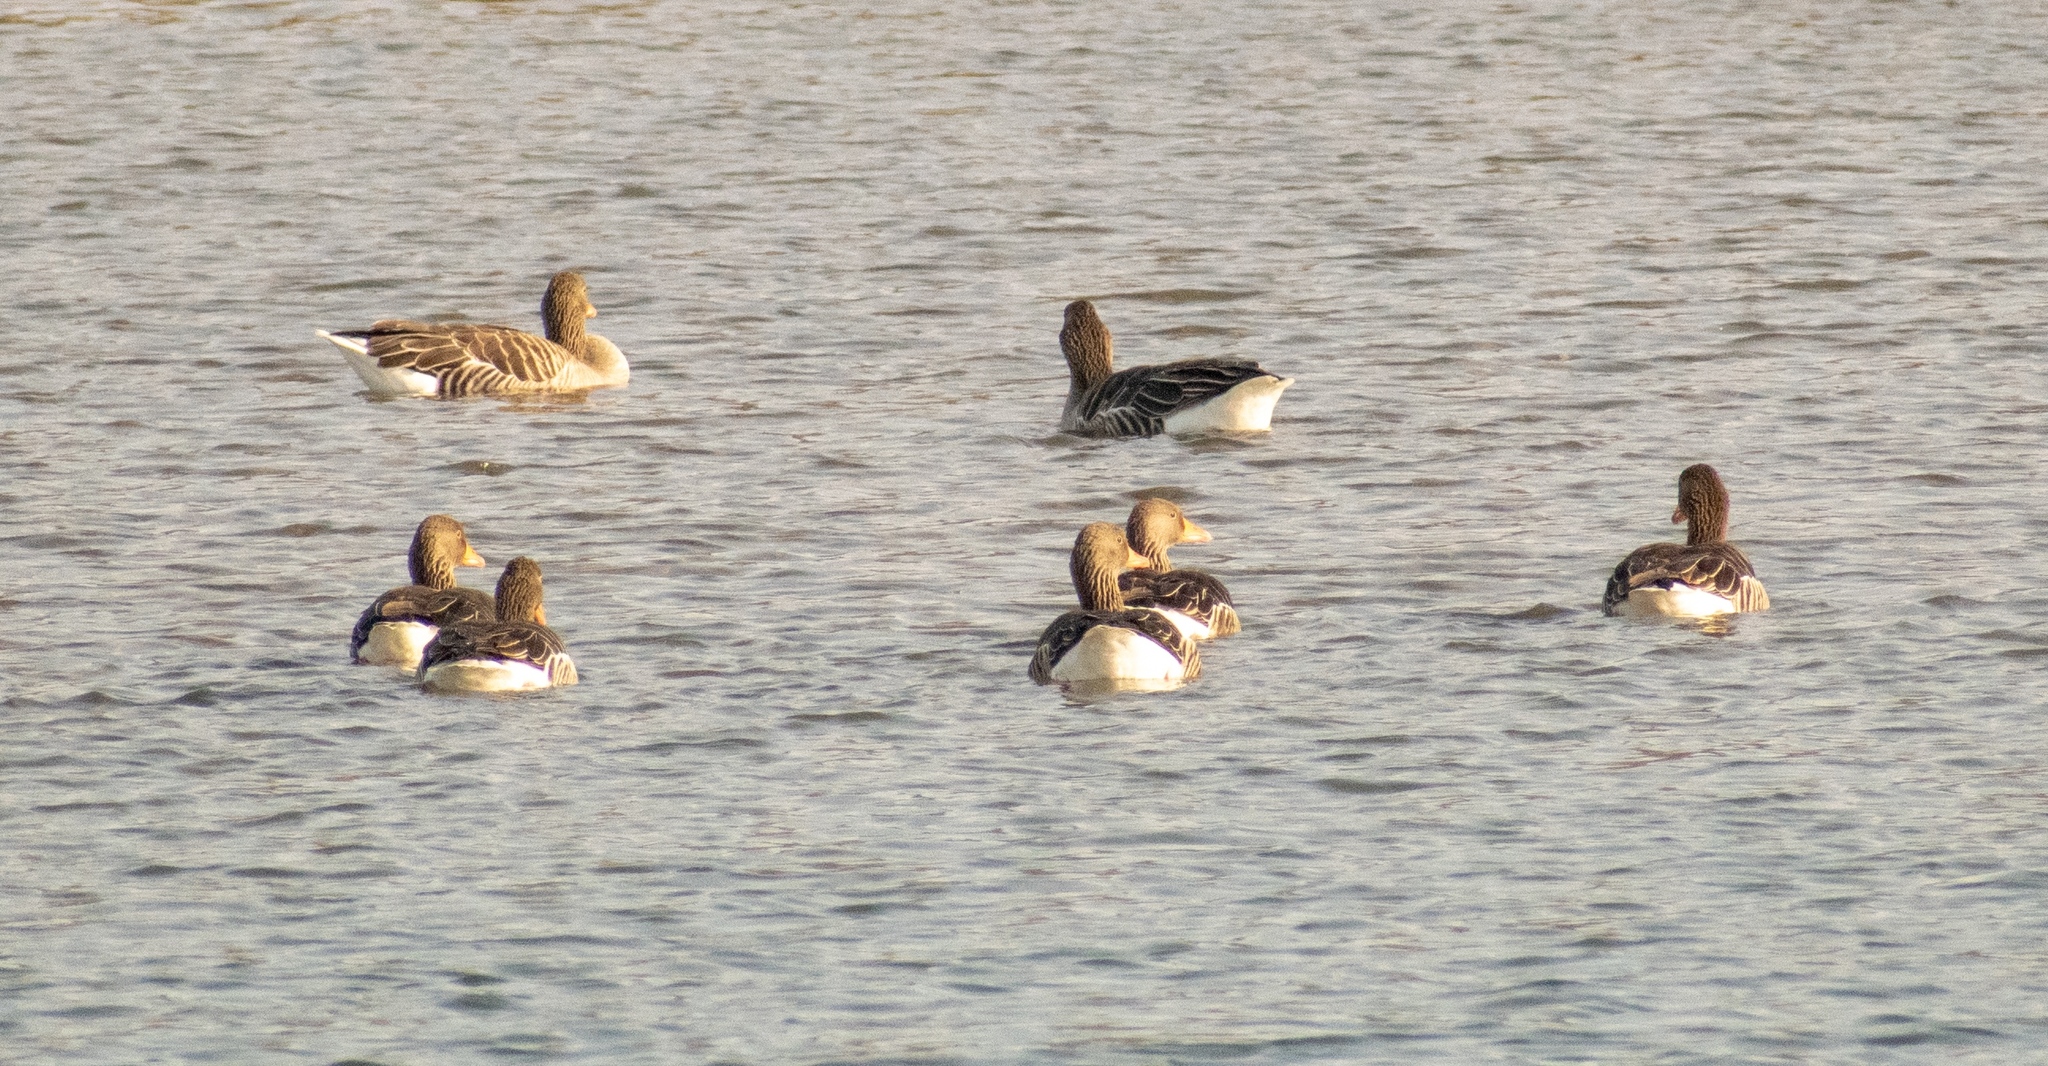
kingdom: Animalia
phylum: Chordata
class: Aves
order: Anseriformes
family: Anatidae
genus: Anser
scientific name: Anser anser
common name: Greylag goose
